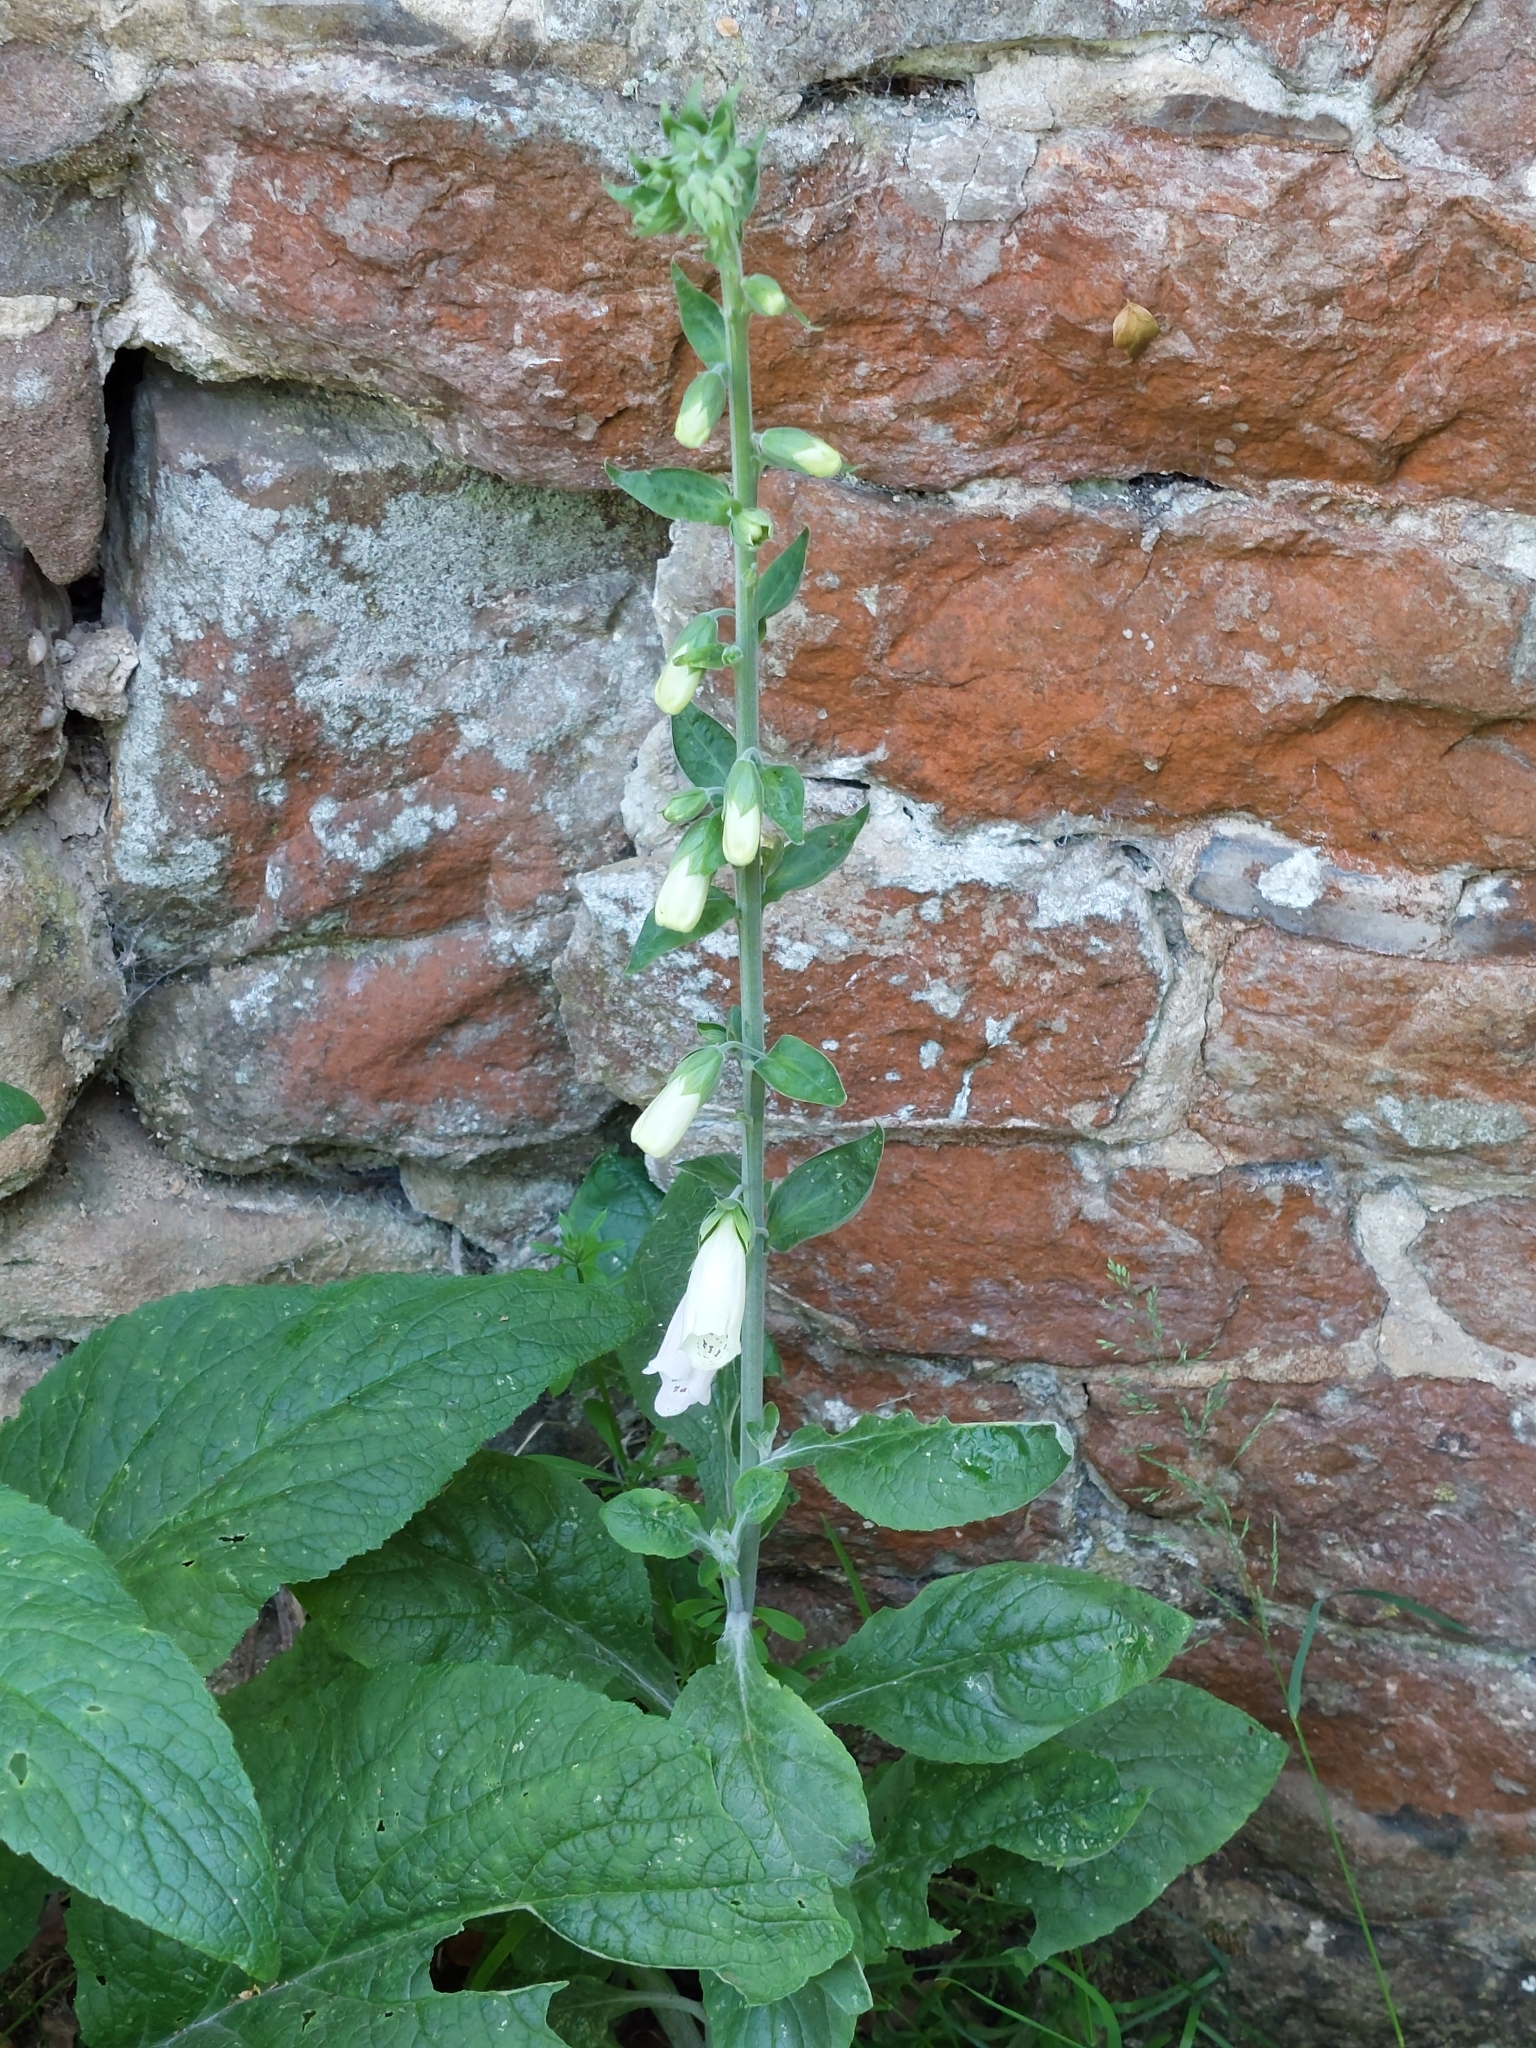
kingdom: Plantae
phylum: Tracheophyta
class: Magnoliopsida
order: Lamiales
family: Plantaginaceae
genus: Digitalis
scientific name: Digitalis purpurea
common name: Foxglove
